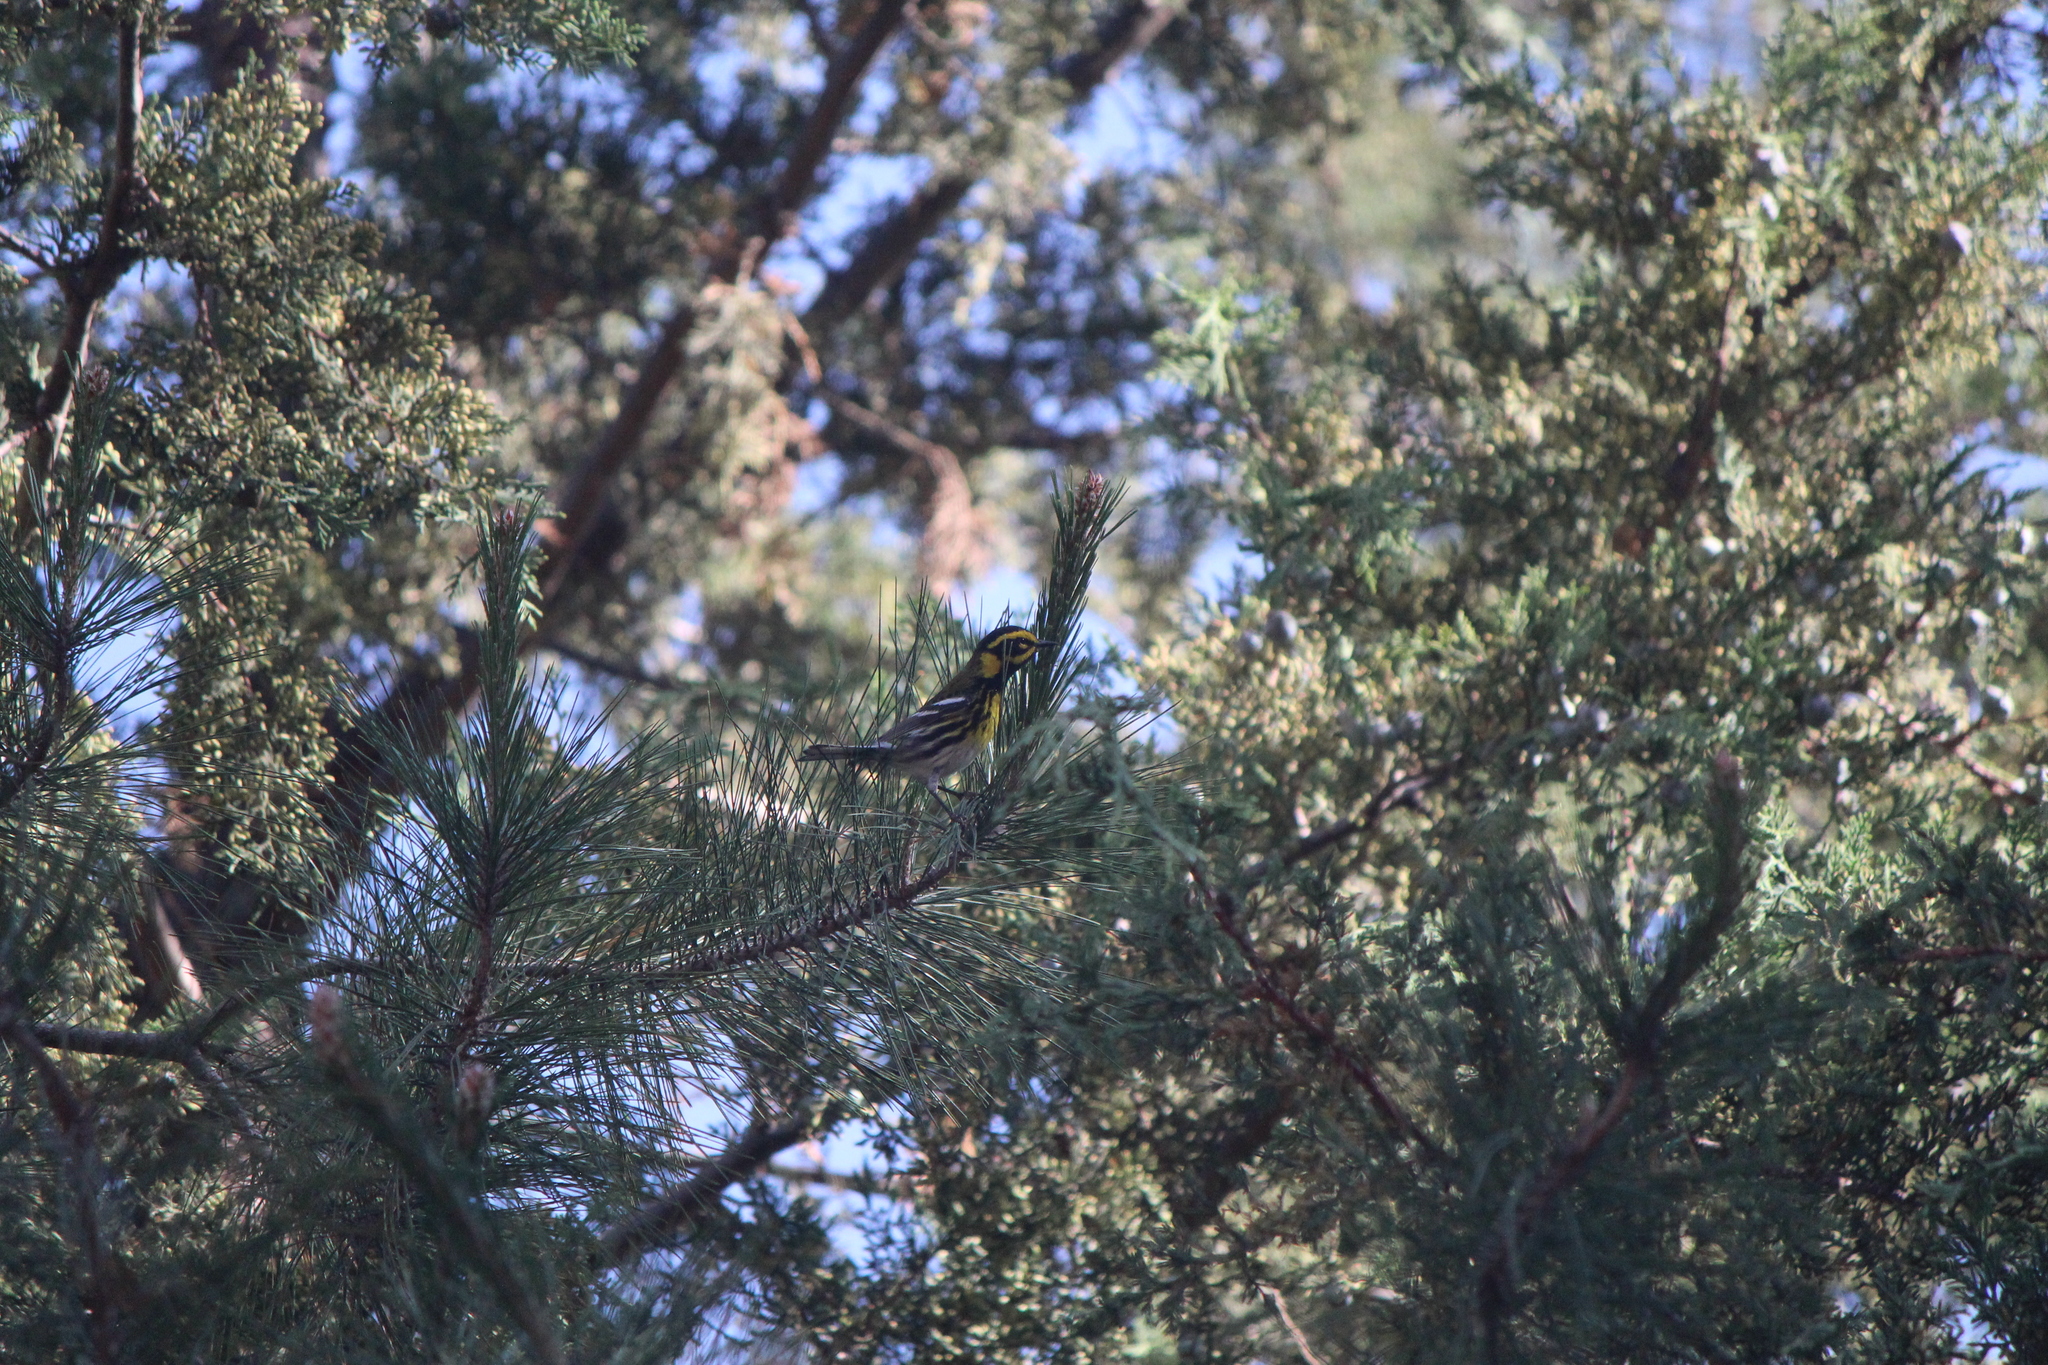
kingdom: Animalia
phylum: Chordata
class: Aves
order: Passeriformes
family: Parulidae
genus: Setophaga
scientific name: Setophaga townsendi
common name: Townsend's warbler
